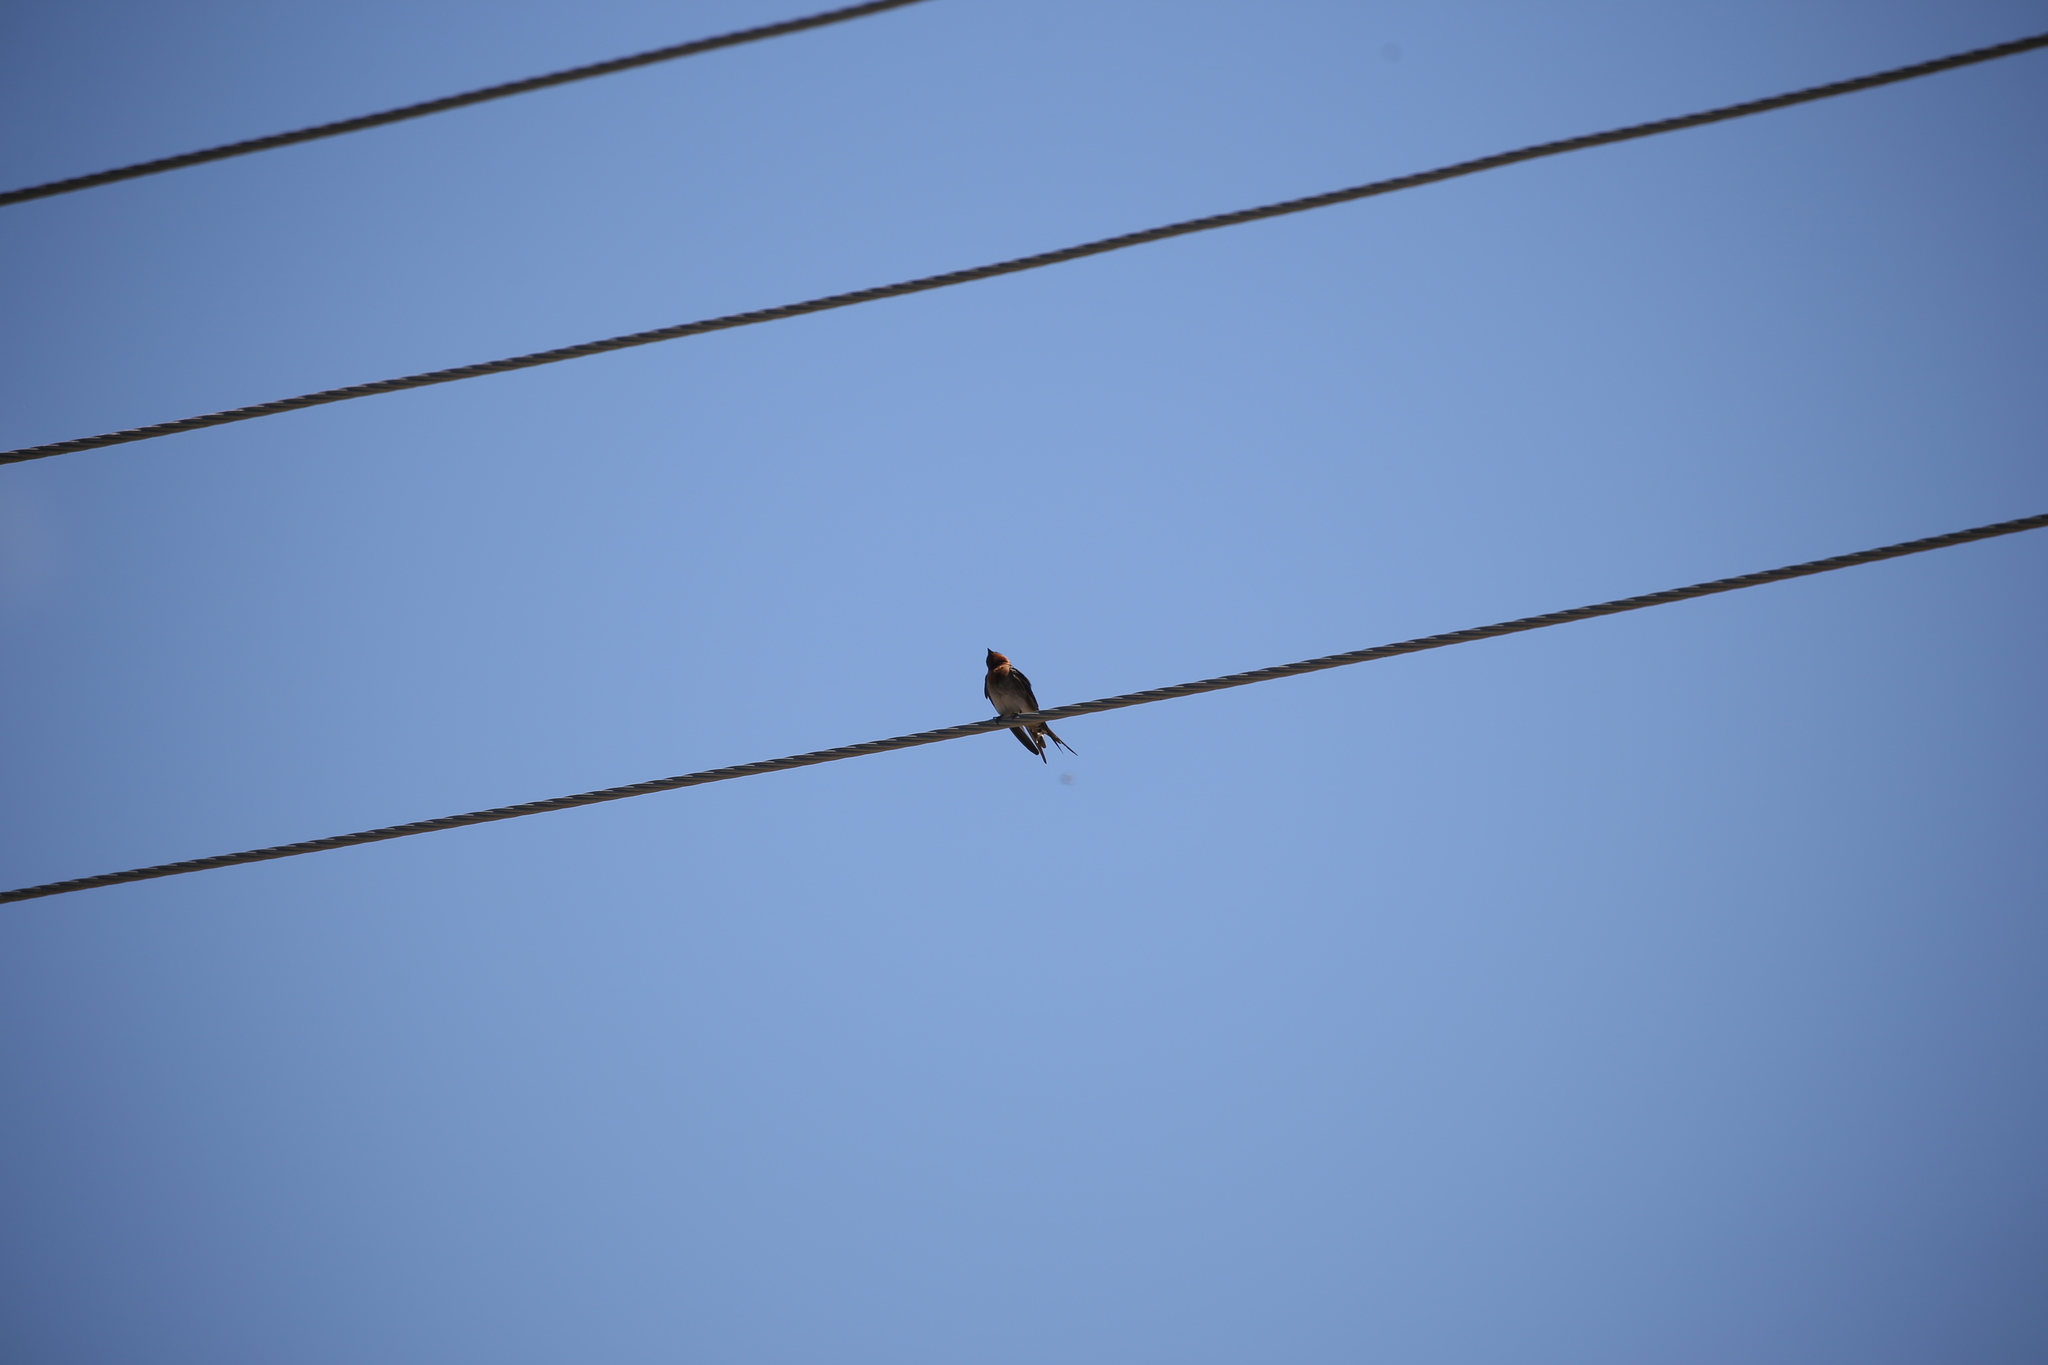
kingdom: Animalia
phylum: Chordata
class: Aves
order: Passeriformes
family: Hirundinidae
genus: Hirundo
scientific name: Hirundo neoxena
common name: Welcome swallow
